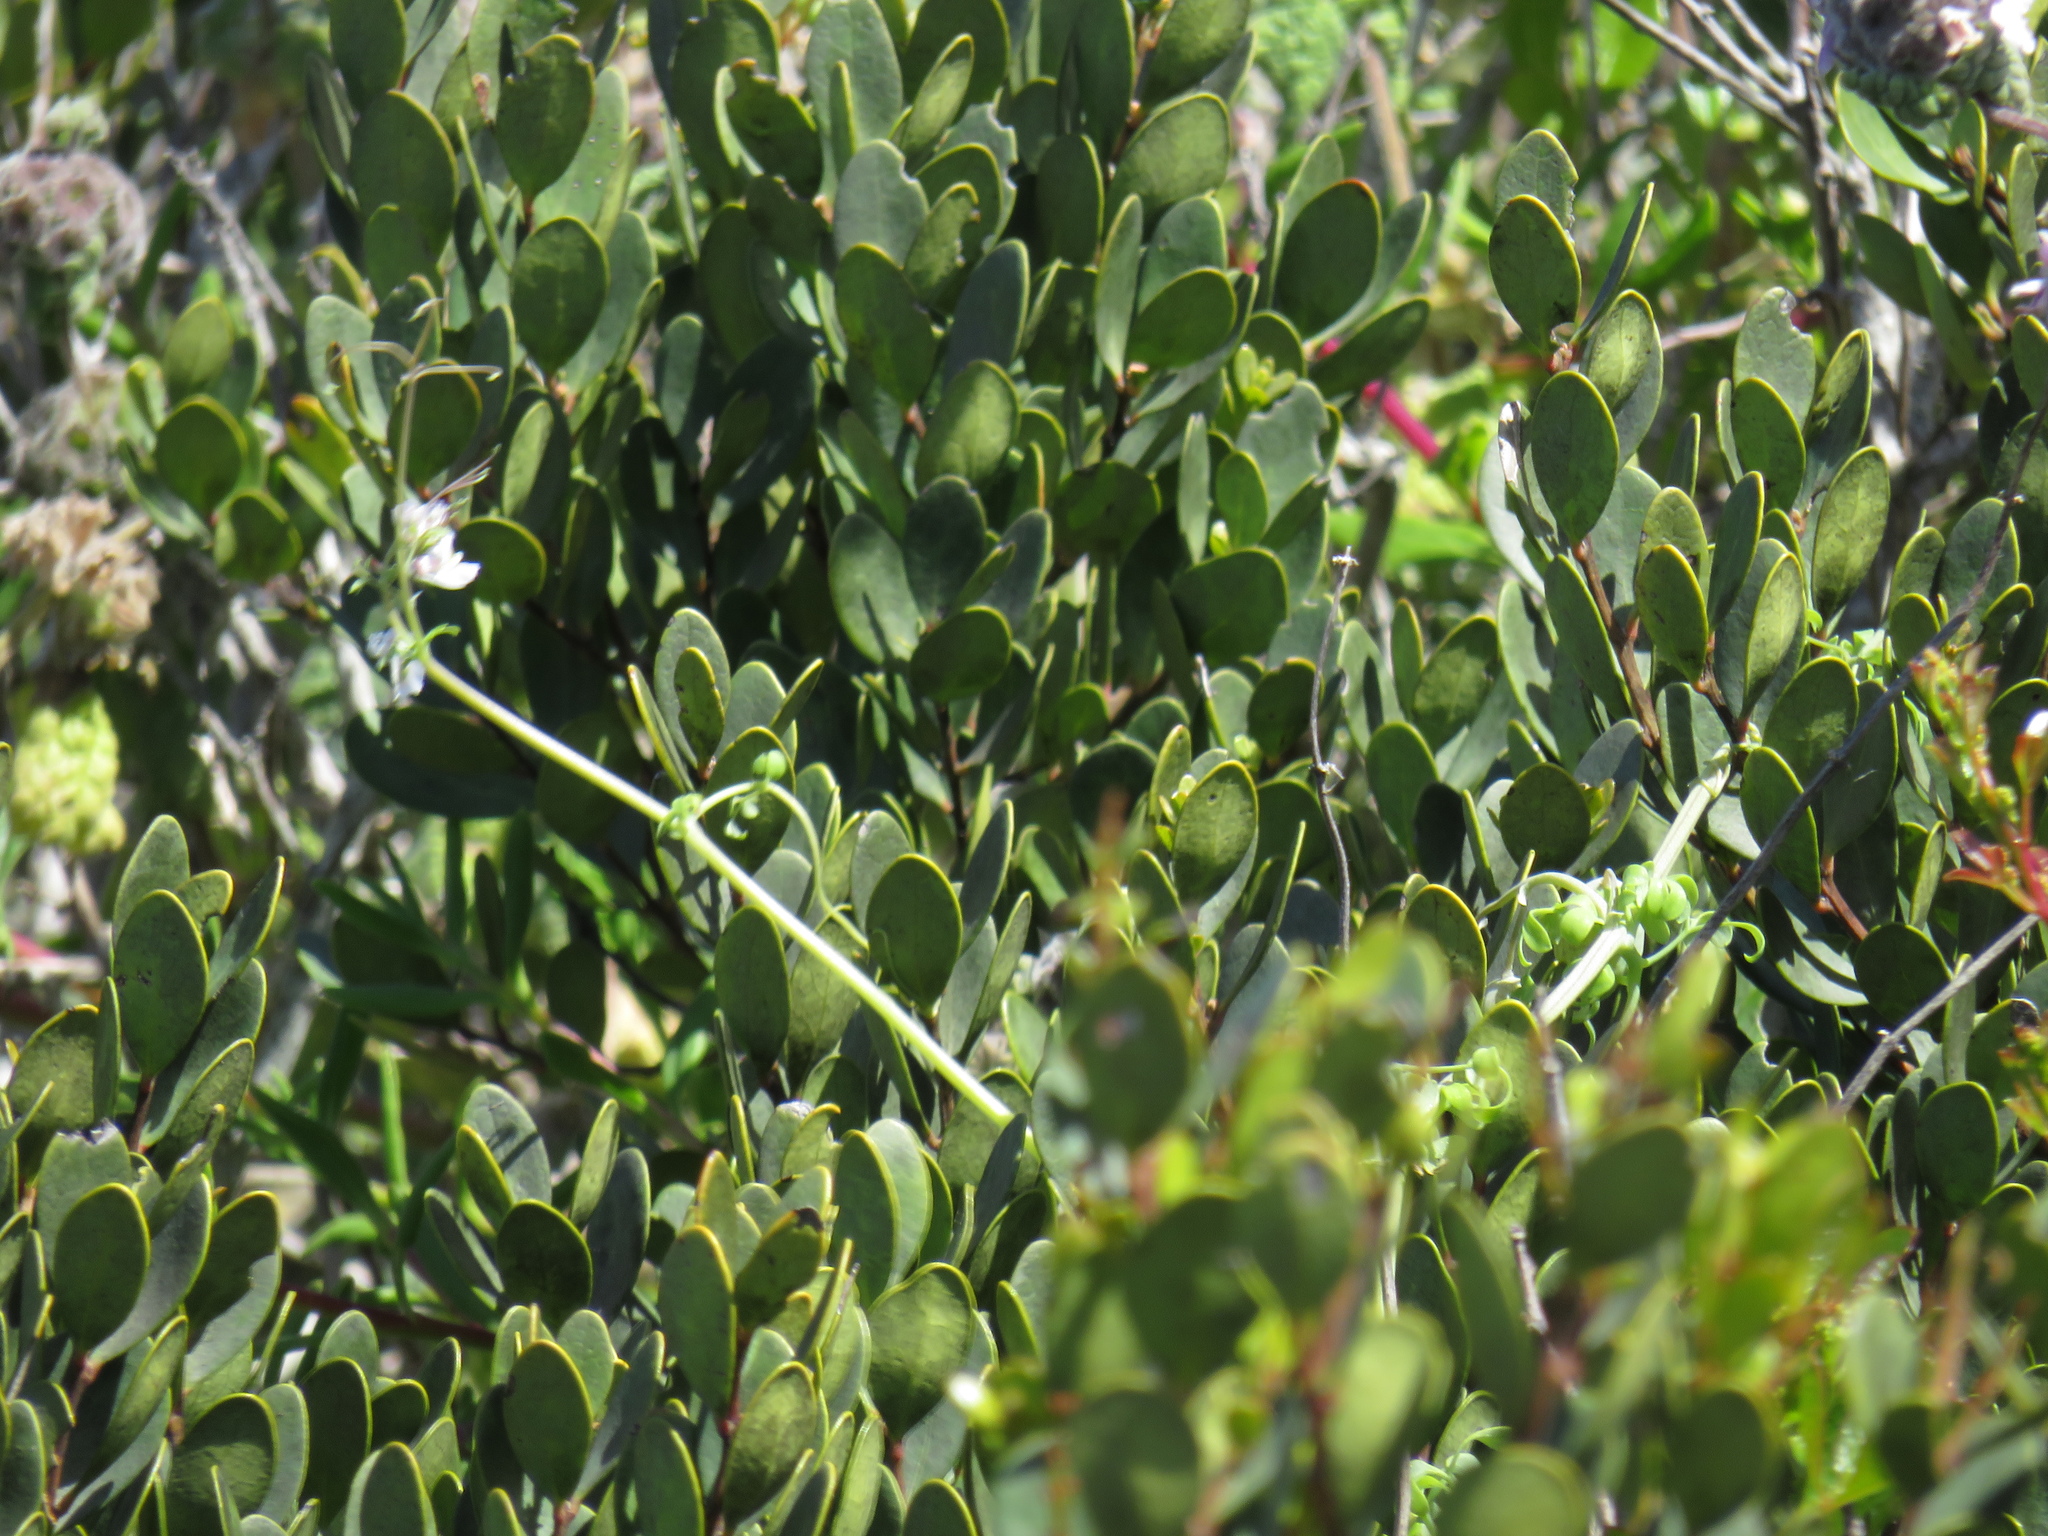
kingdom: Plantae
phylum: Tracheophyta
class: Magnoliopsida
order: Ericales
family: Ebenaceae
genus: Euclea
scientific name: Euclea racemosa
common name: Dune guarri
